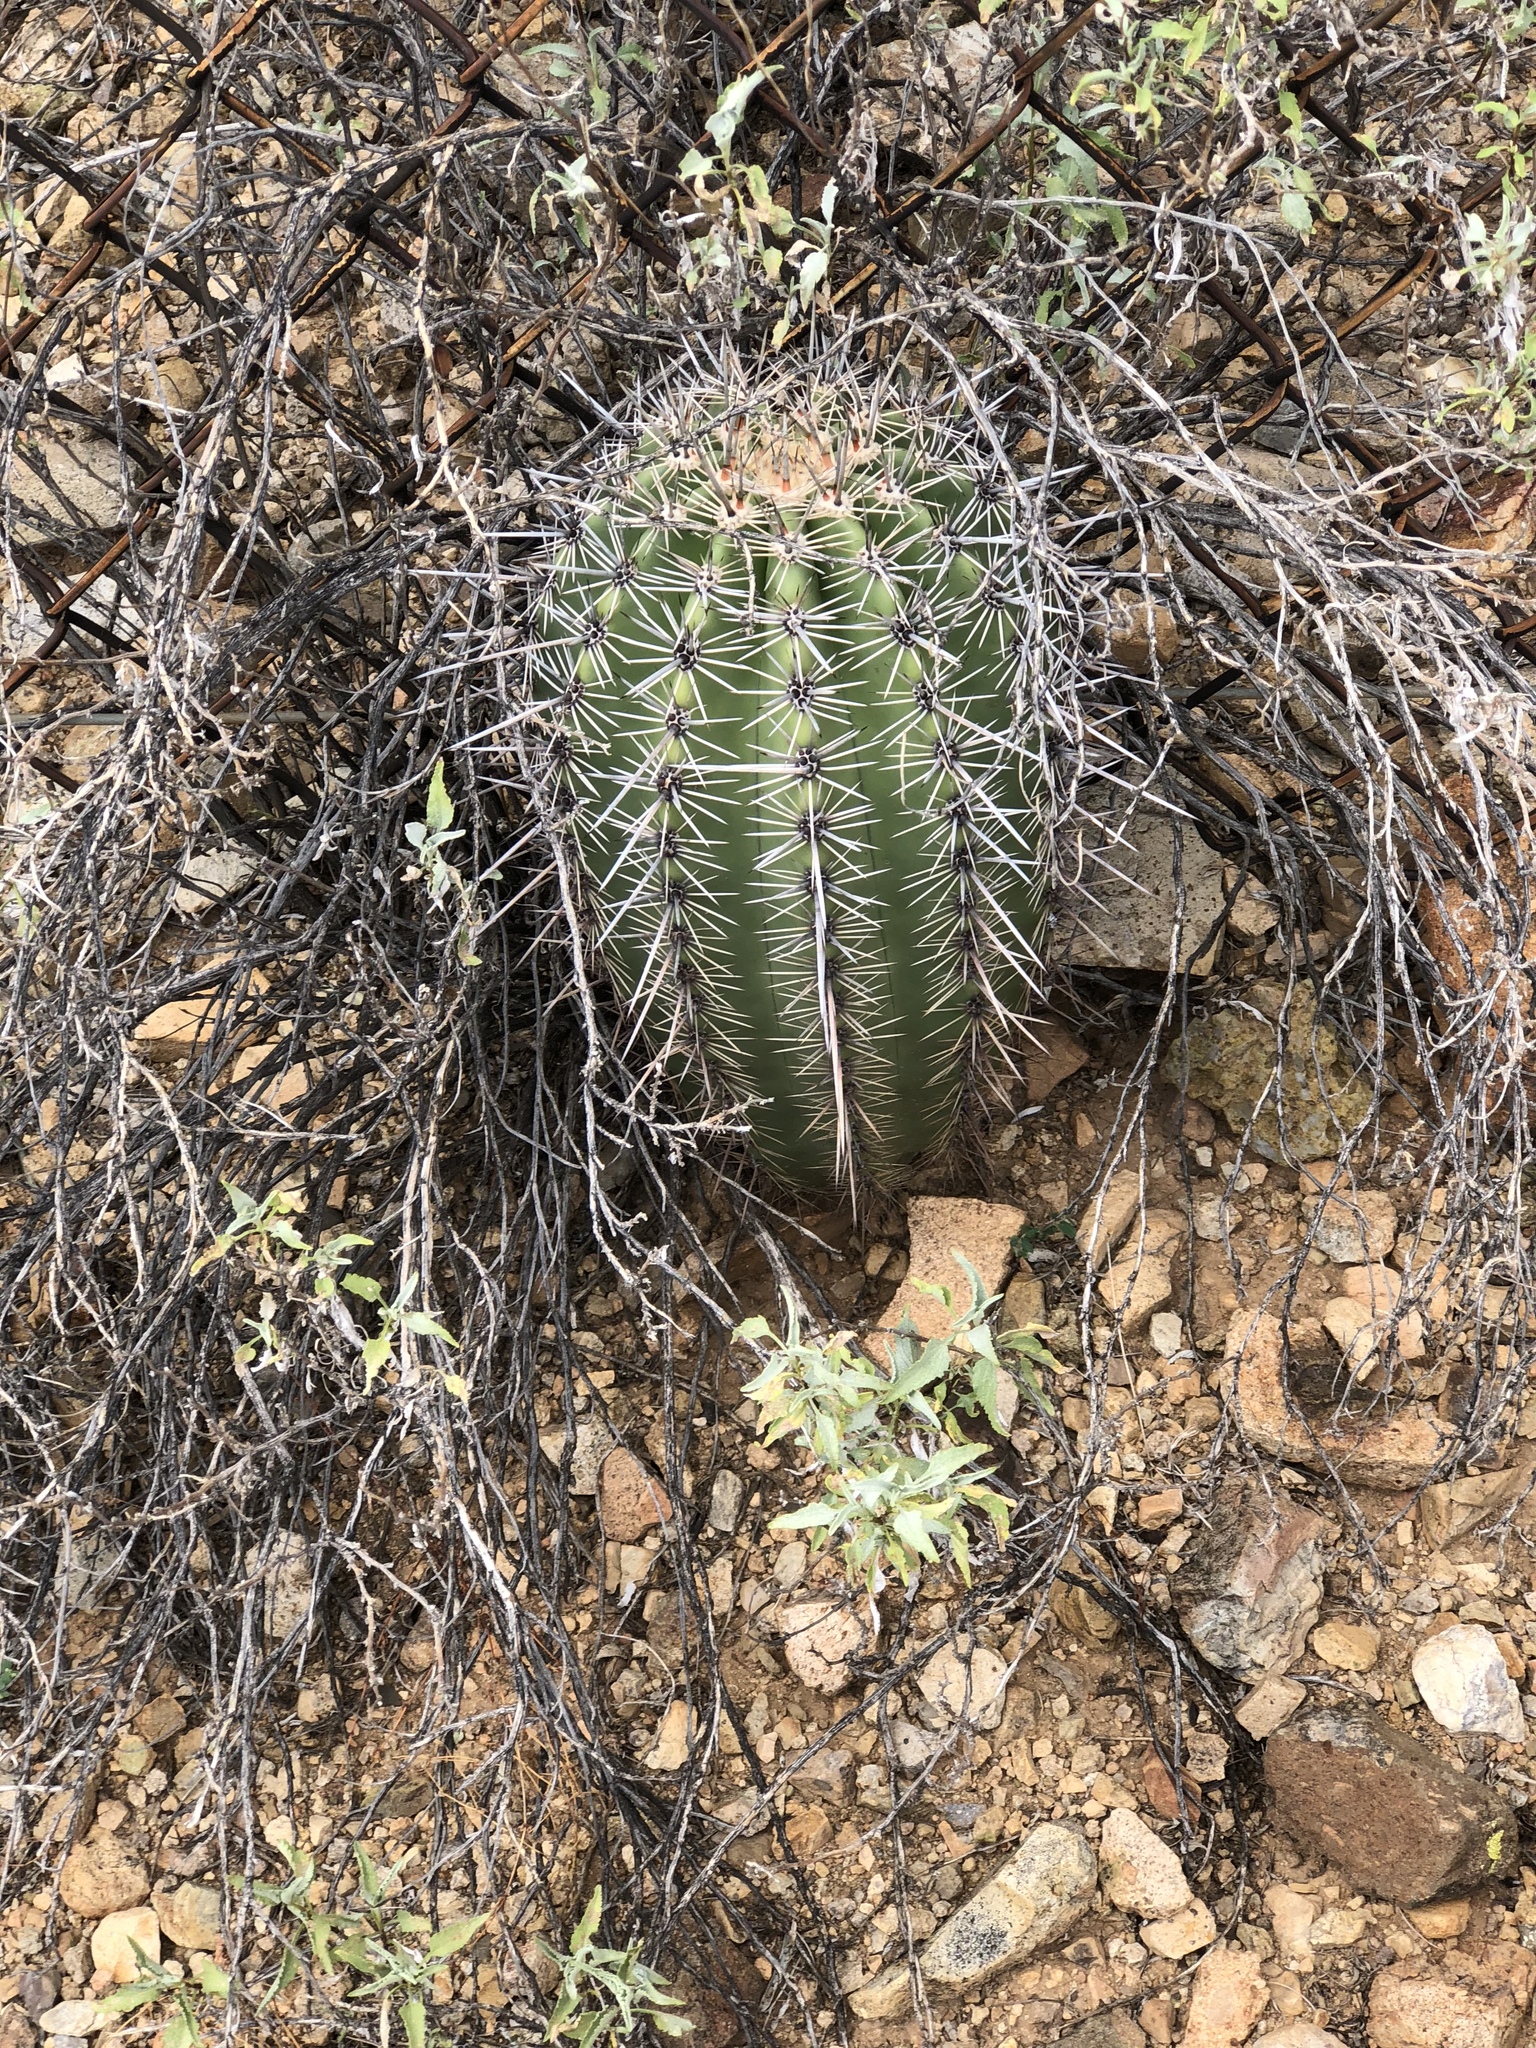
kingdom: Plantae
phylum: Tracheophyta
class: Magnoliopsida
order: Caryophyllales
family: Cactaceae
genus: Carnegiea
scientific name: Carnegiea gigantea
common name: Saguaro
